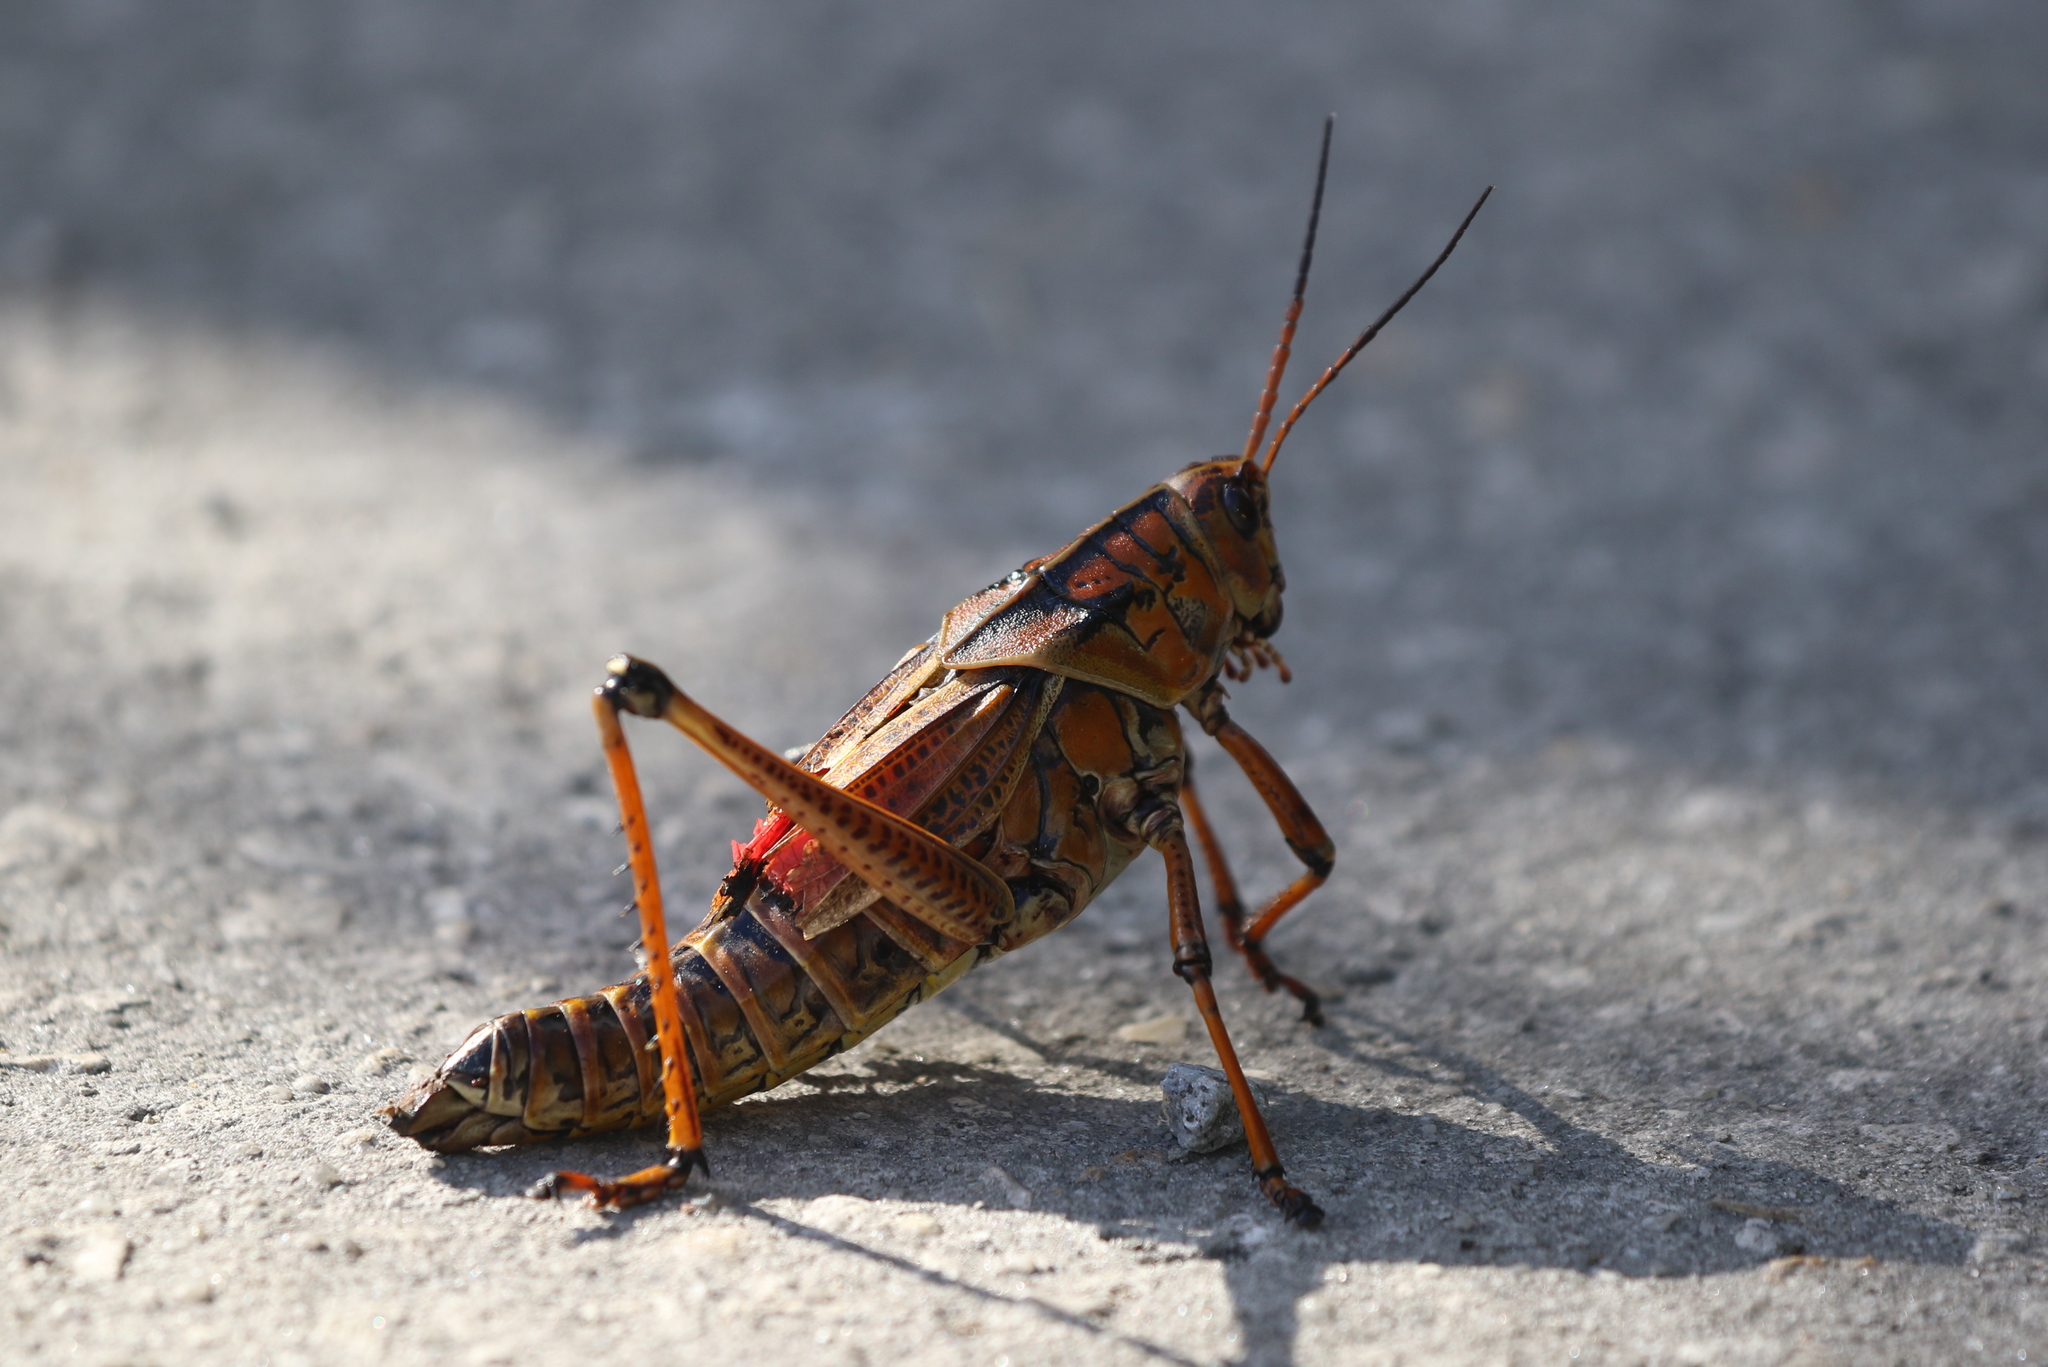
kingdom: Animalia
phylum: Arthropoda
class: Insecta
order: Orthoptera
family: Romaleidae
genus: Romalea
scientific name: Romalea microptera
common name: Eastern lubber grasshopper
